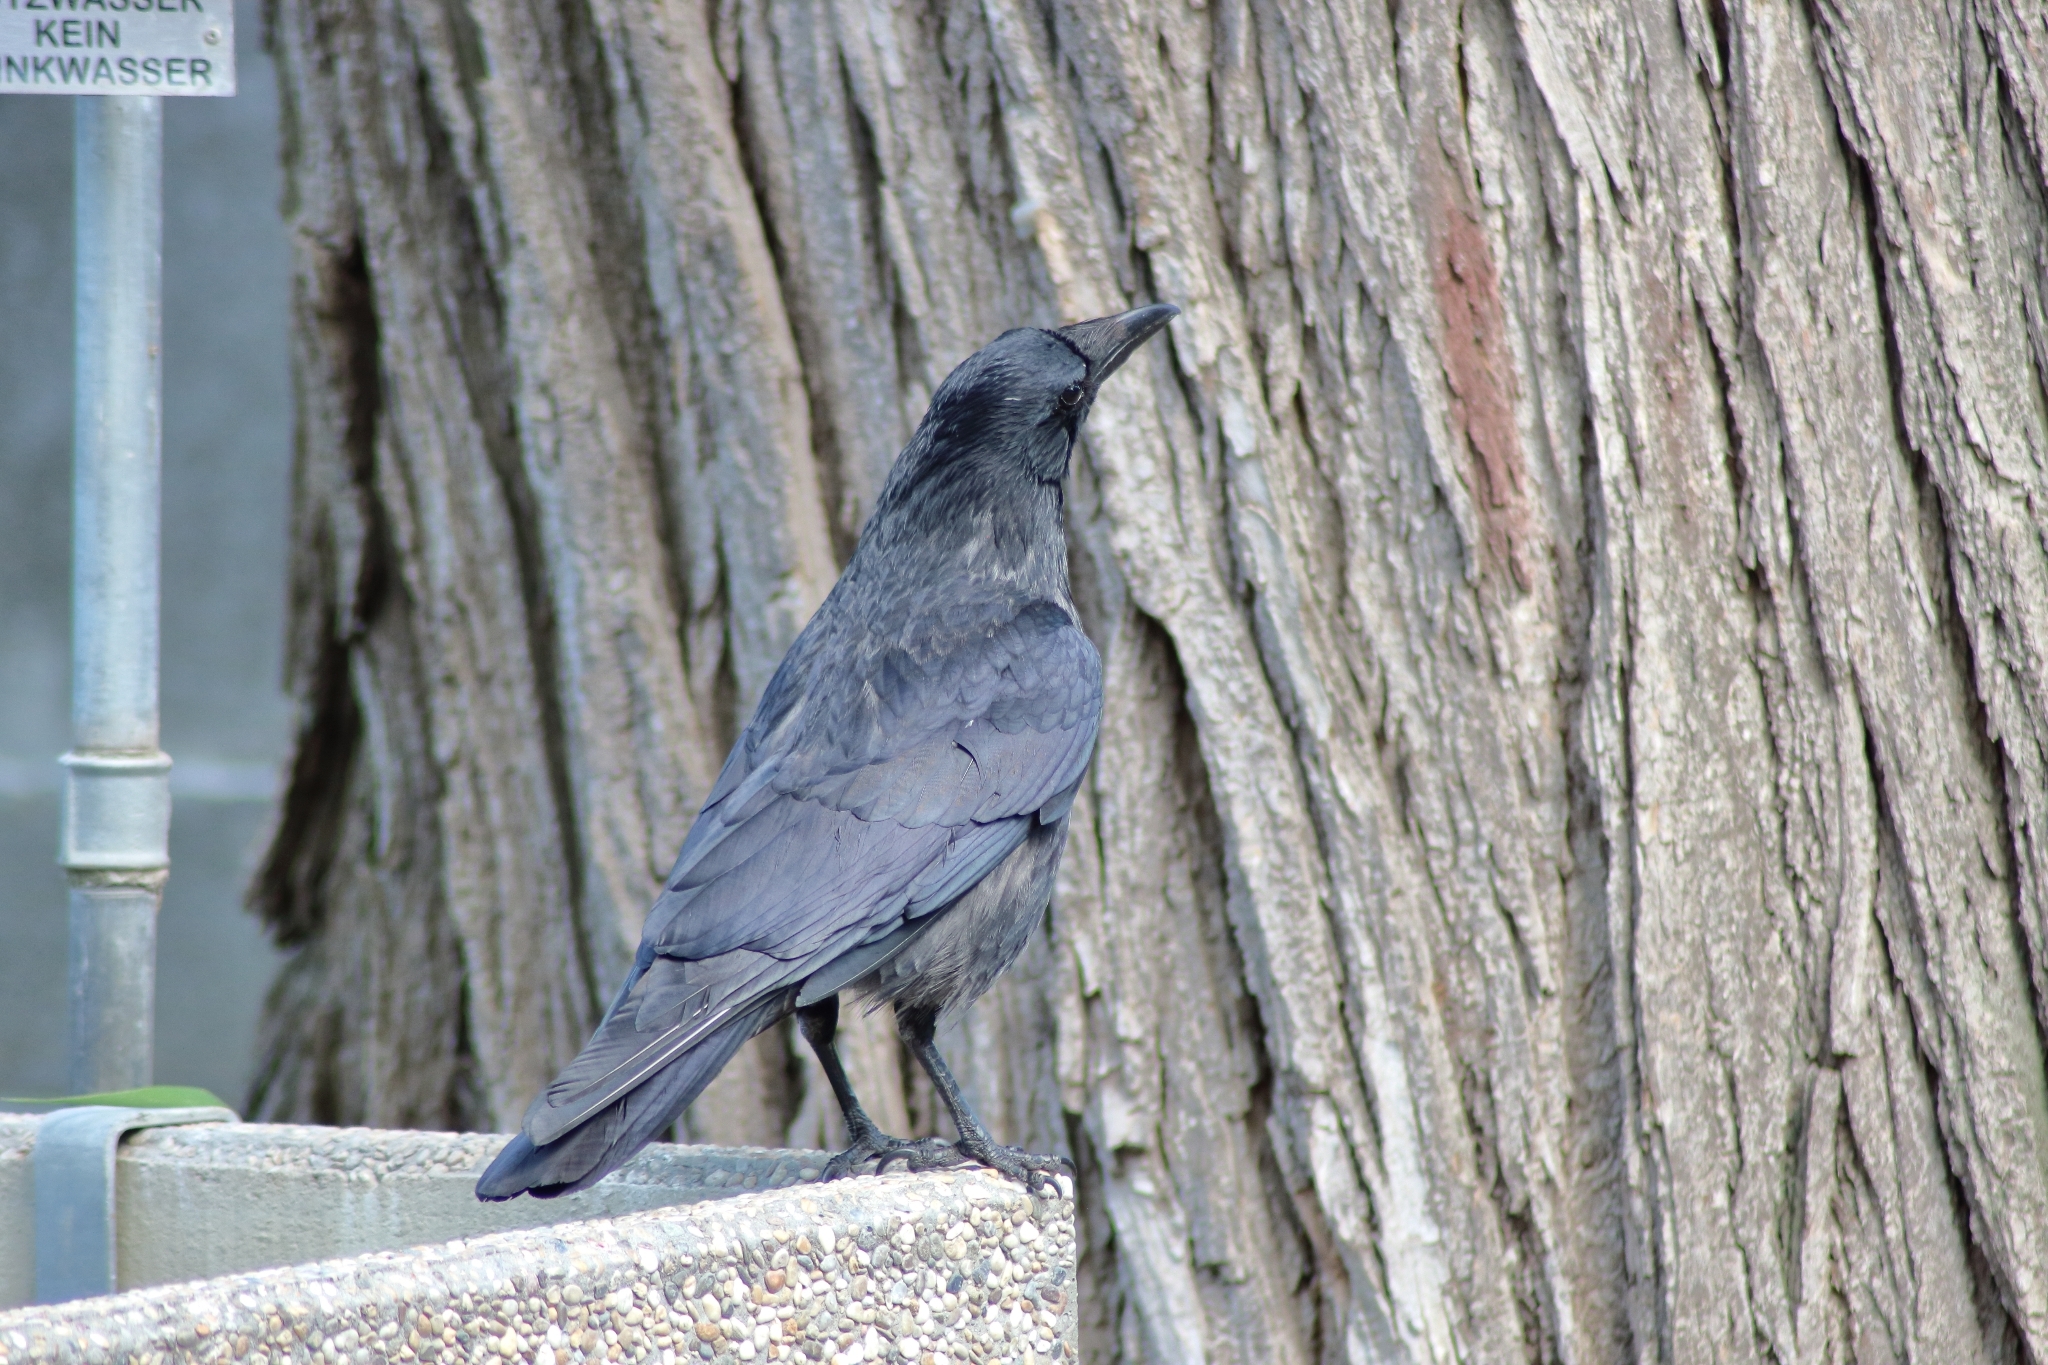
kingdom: Animalia
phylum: Chordata
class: Aves
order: Passeriformes
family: Corvidae
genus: Corvus
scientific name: Corvus
